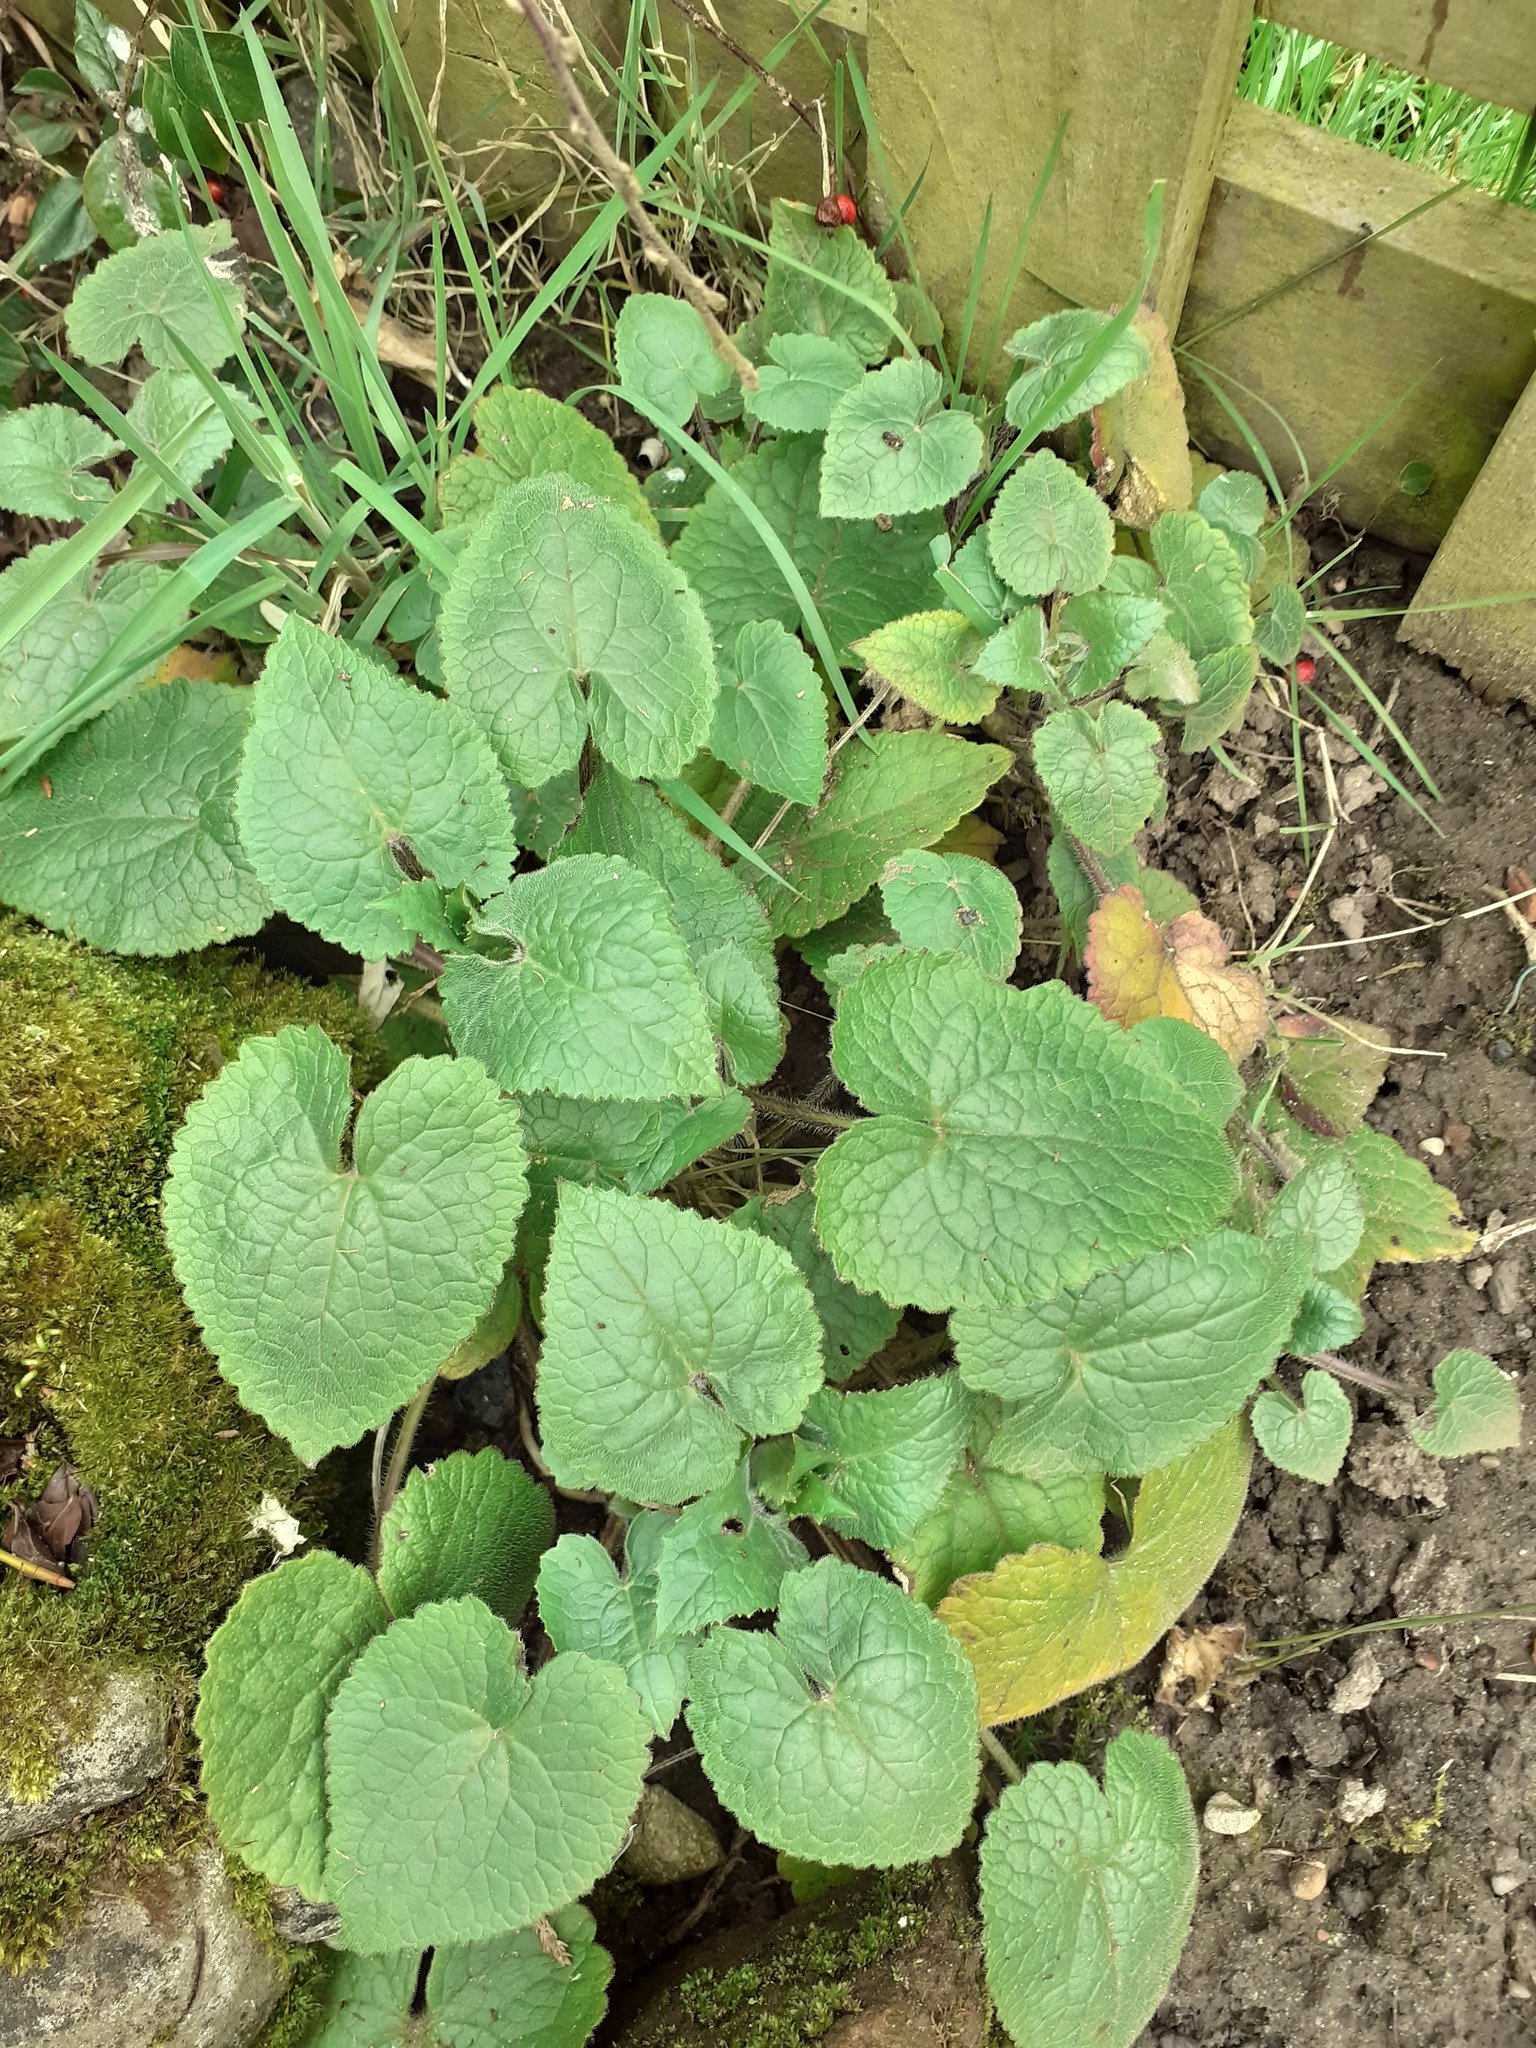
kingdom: Plantae
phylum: Tracheophyta
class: Magnoliopsida
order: Brassicales
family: Brassicaceae
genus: Lunaria
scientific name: Lunaria annua
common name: Honesty
